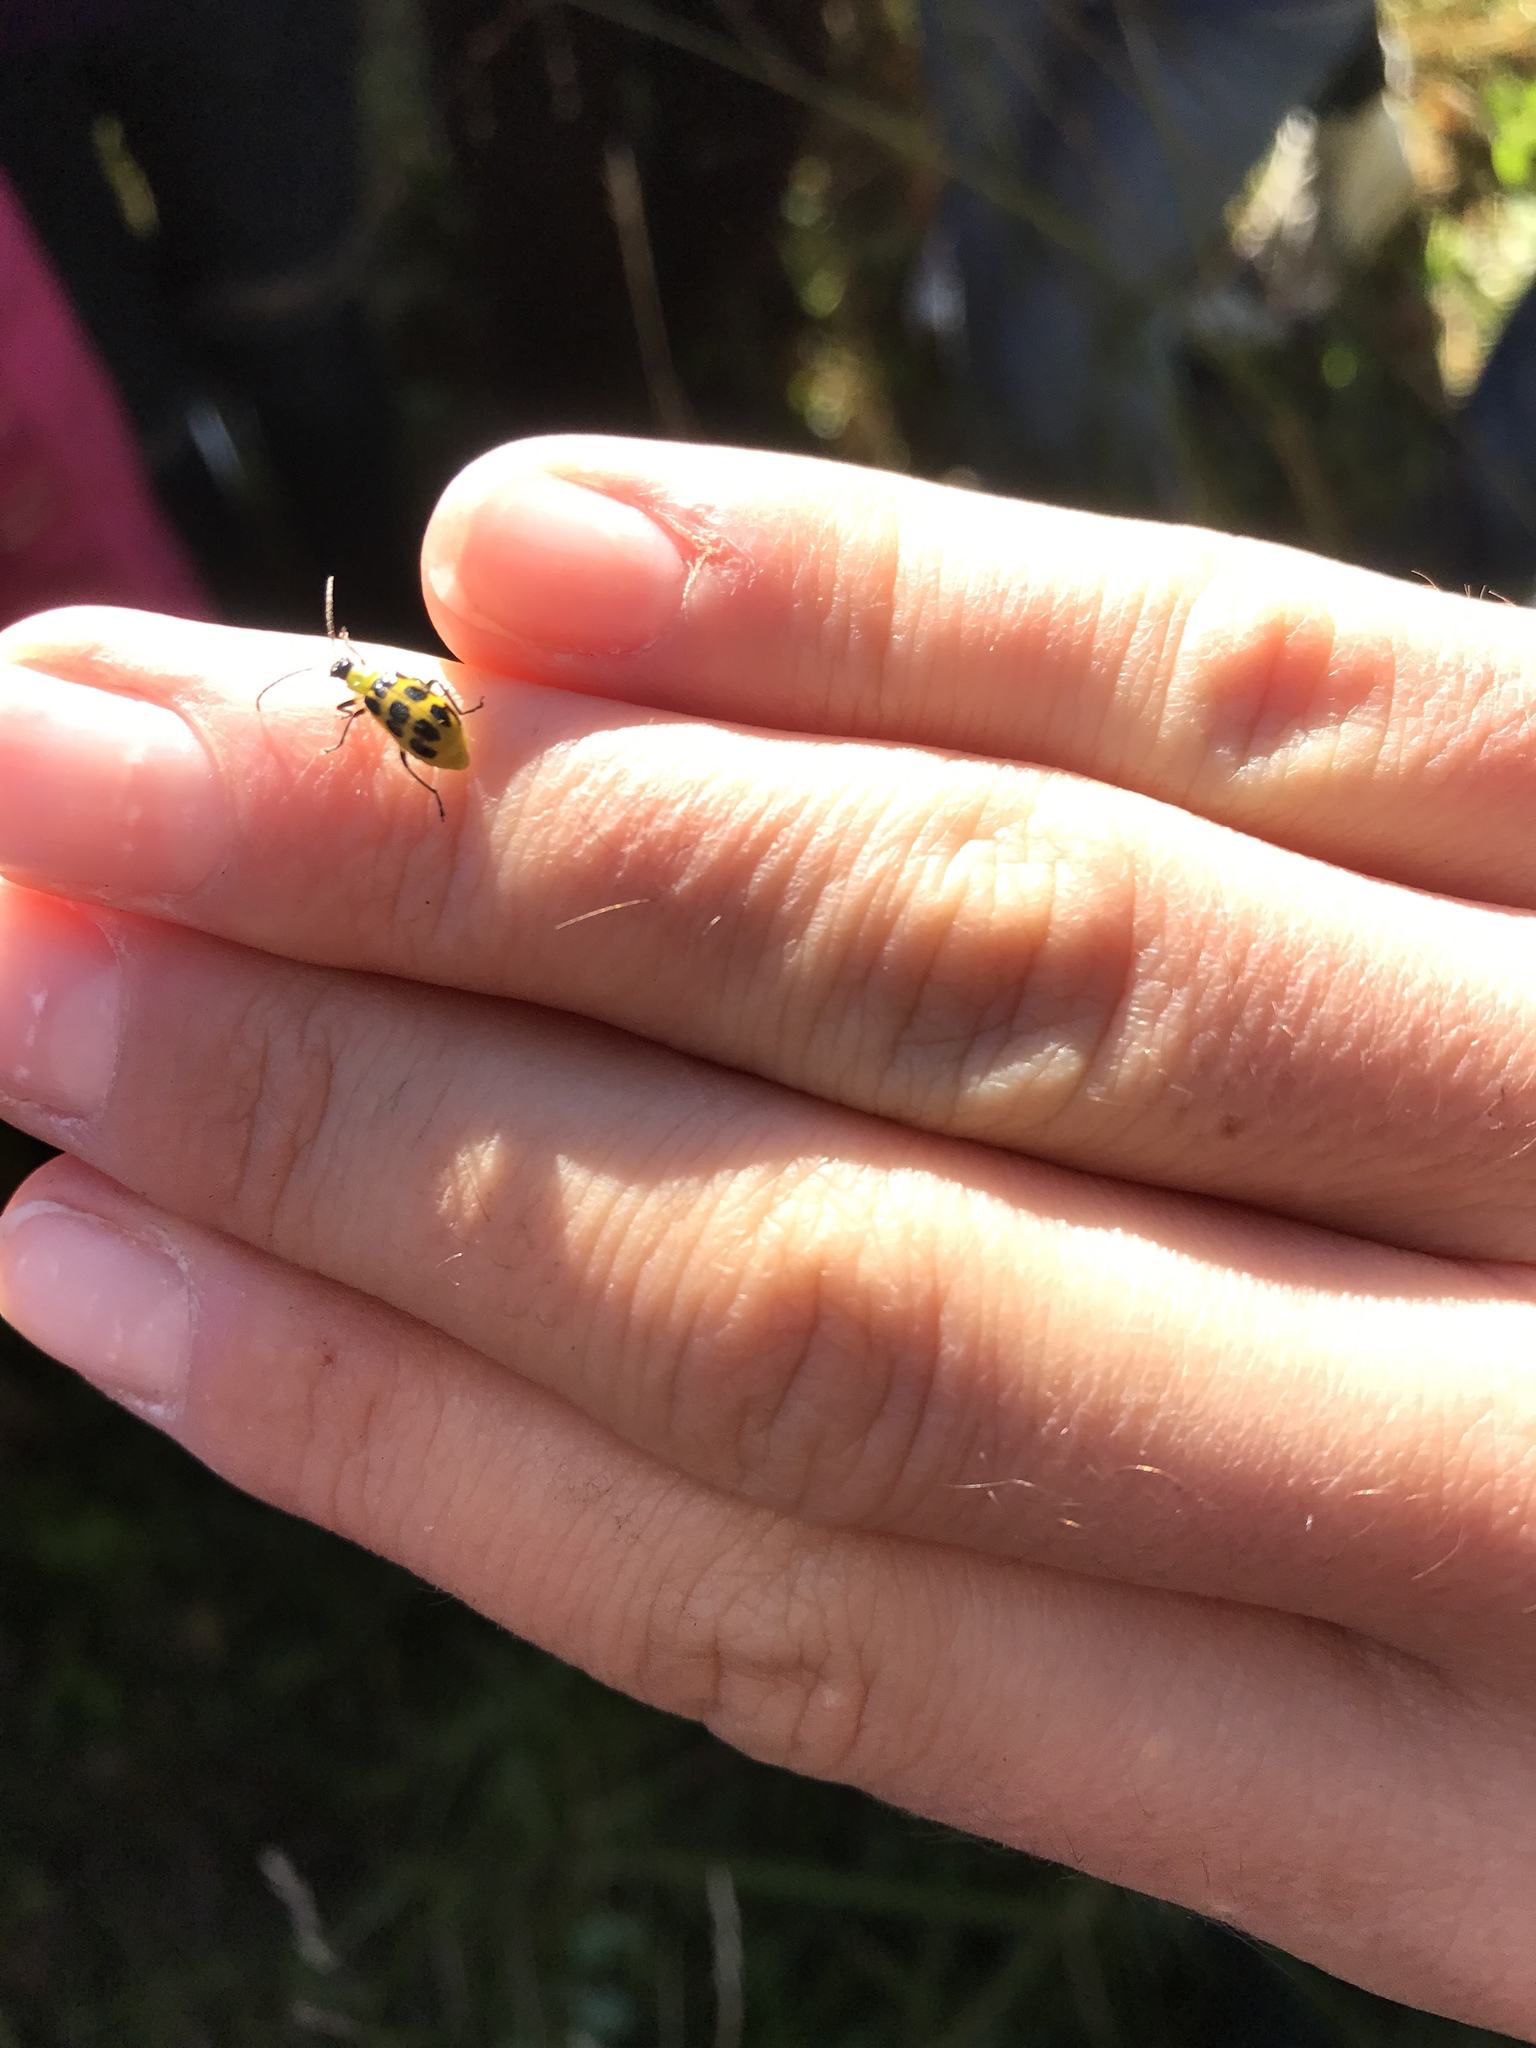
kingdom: Animalia
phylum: Arthropoda
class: Insecta
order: Coleoptera
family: Chrysomelidae
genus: Diabrotica
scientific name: Diabrotica undecimpunctata
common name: Spotted cucumber beetle
